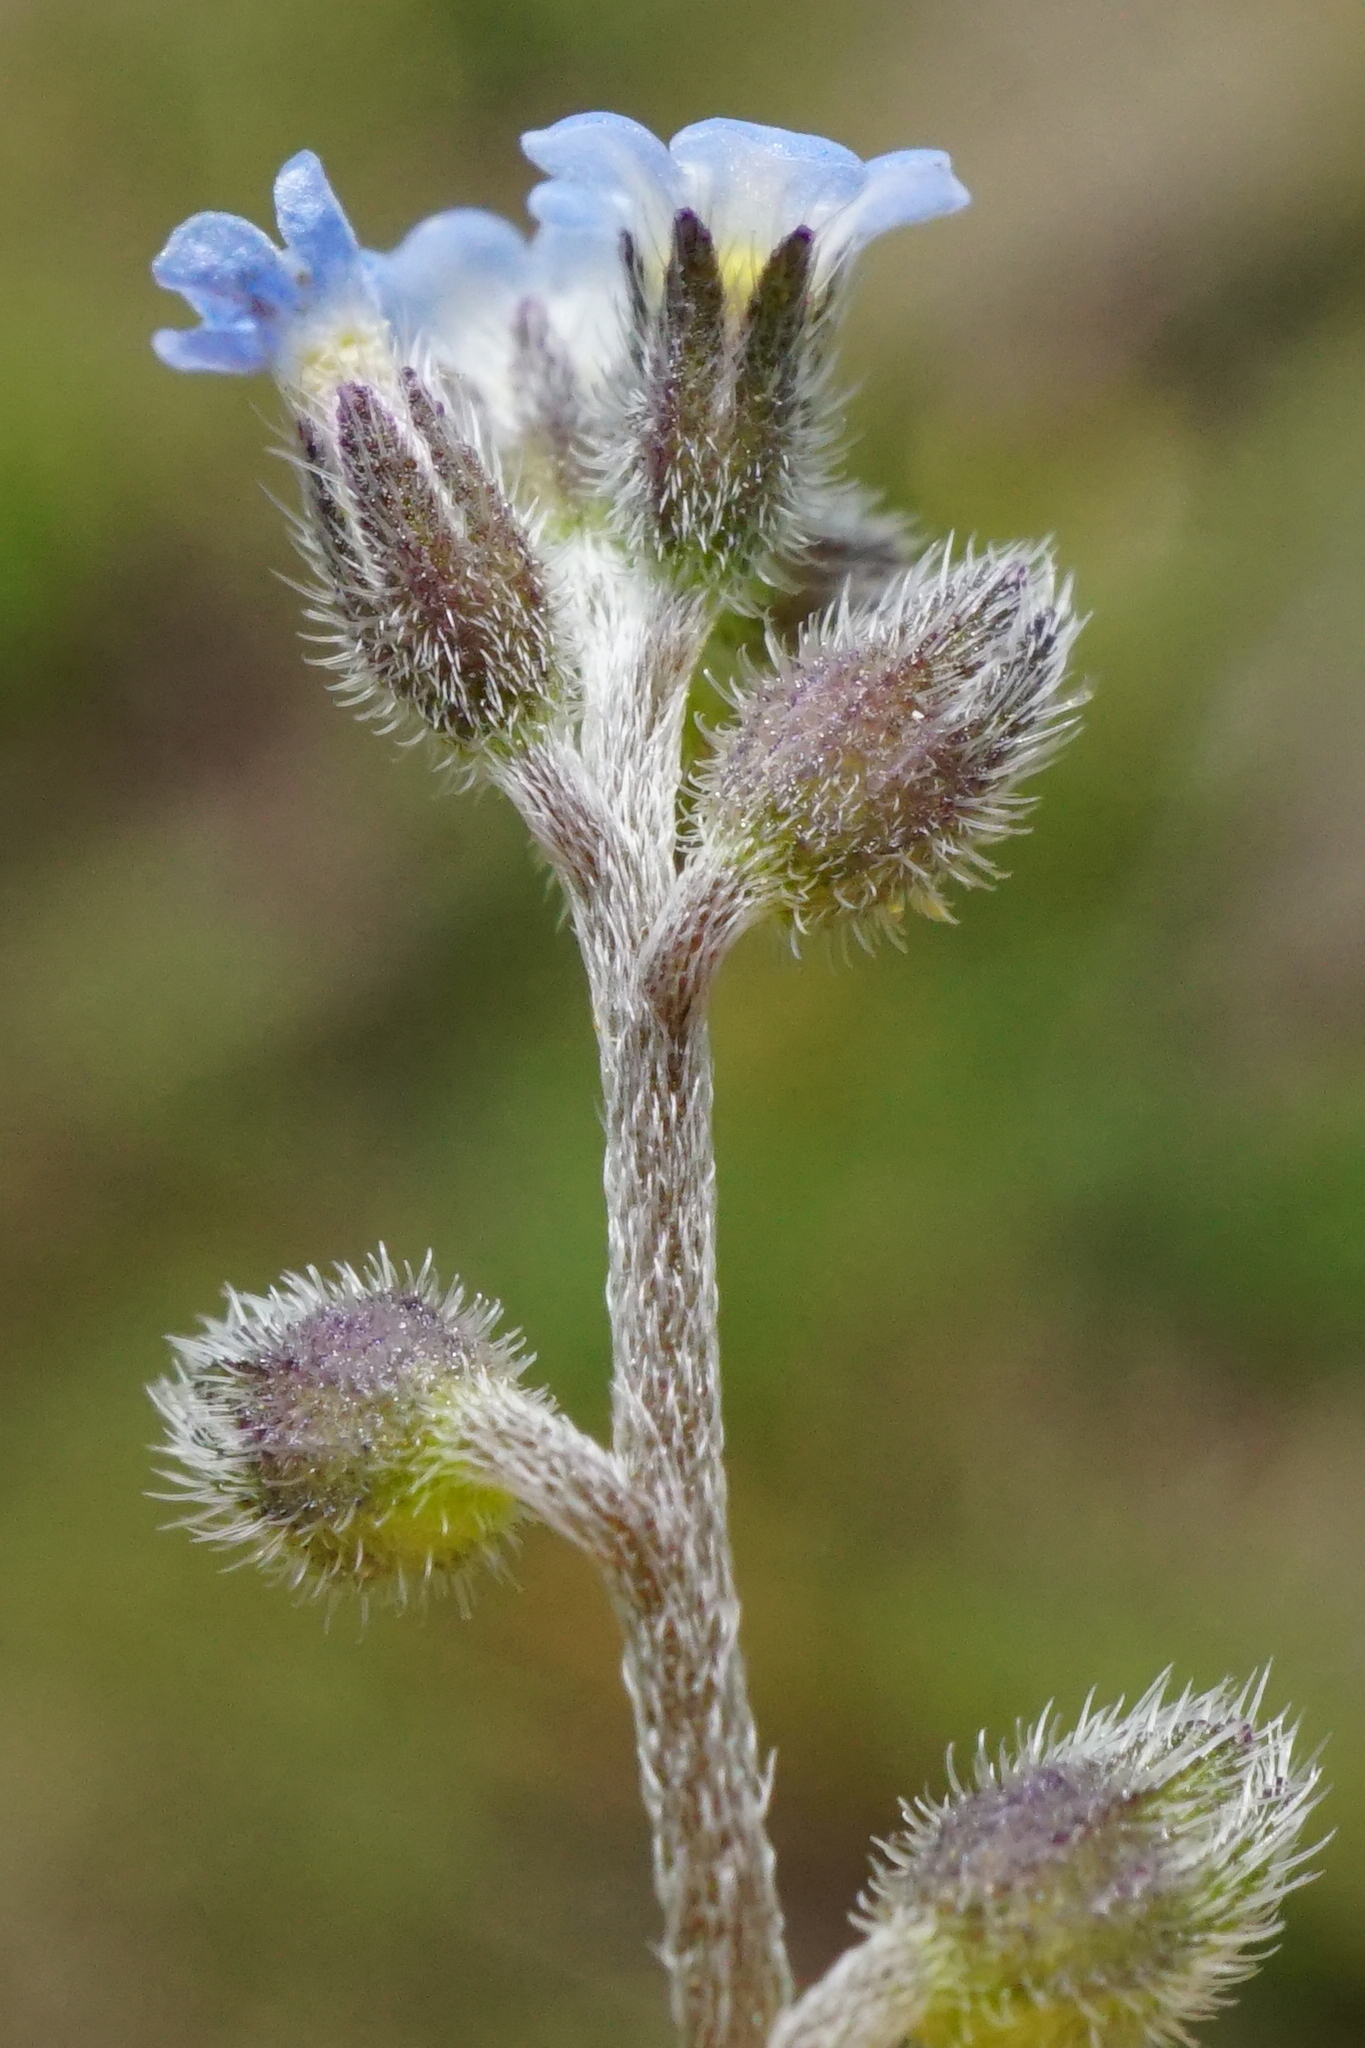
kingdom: Plantae
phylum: Tracheophyta
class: Magnoliopsida
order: Boraginales
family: Boraginaceae
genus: Myosotis
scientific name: Myosotis ramosissima
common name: Early forget-me-not
